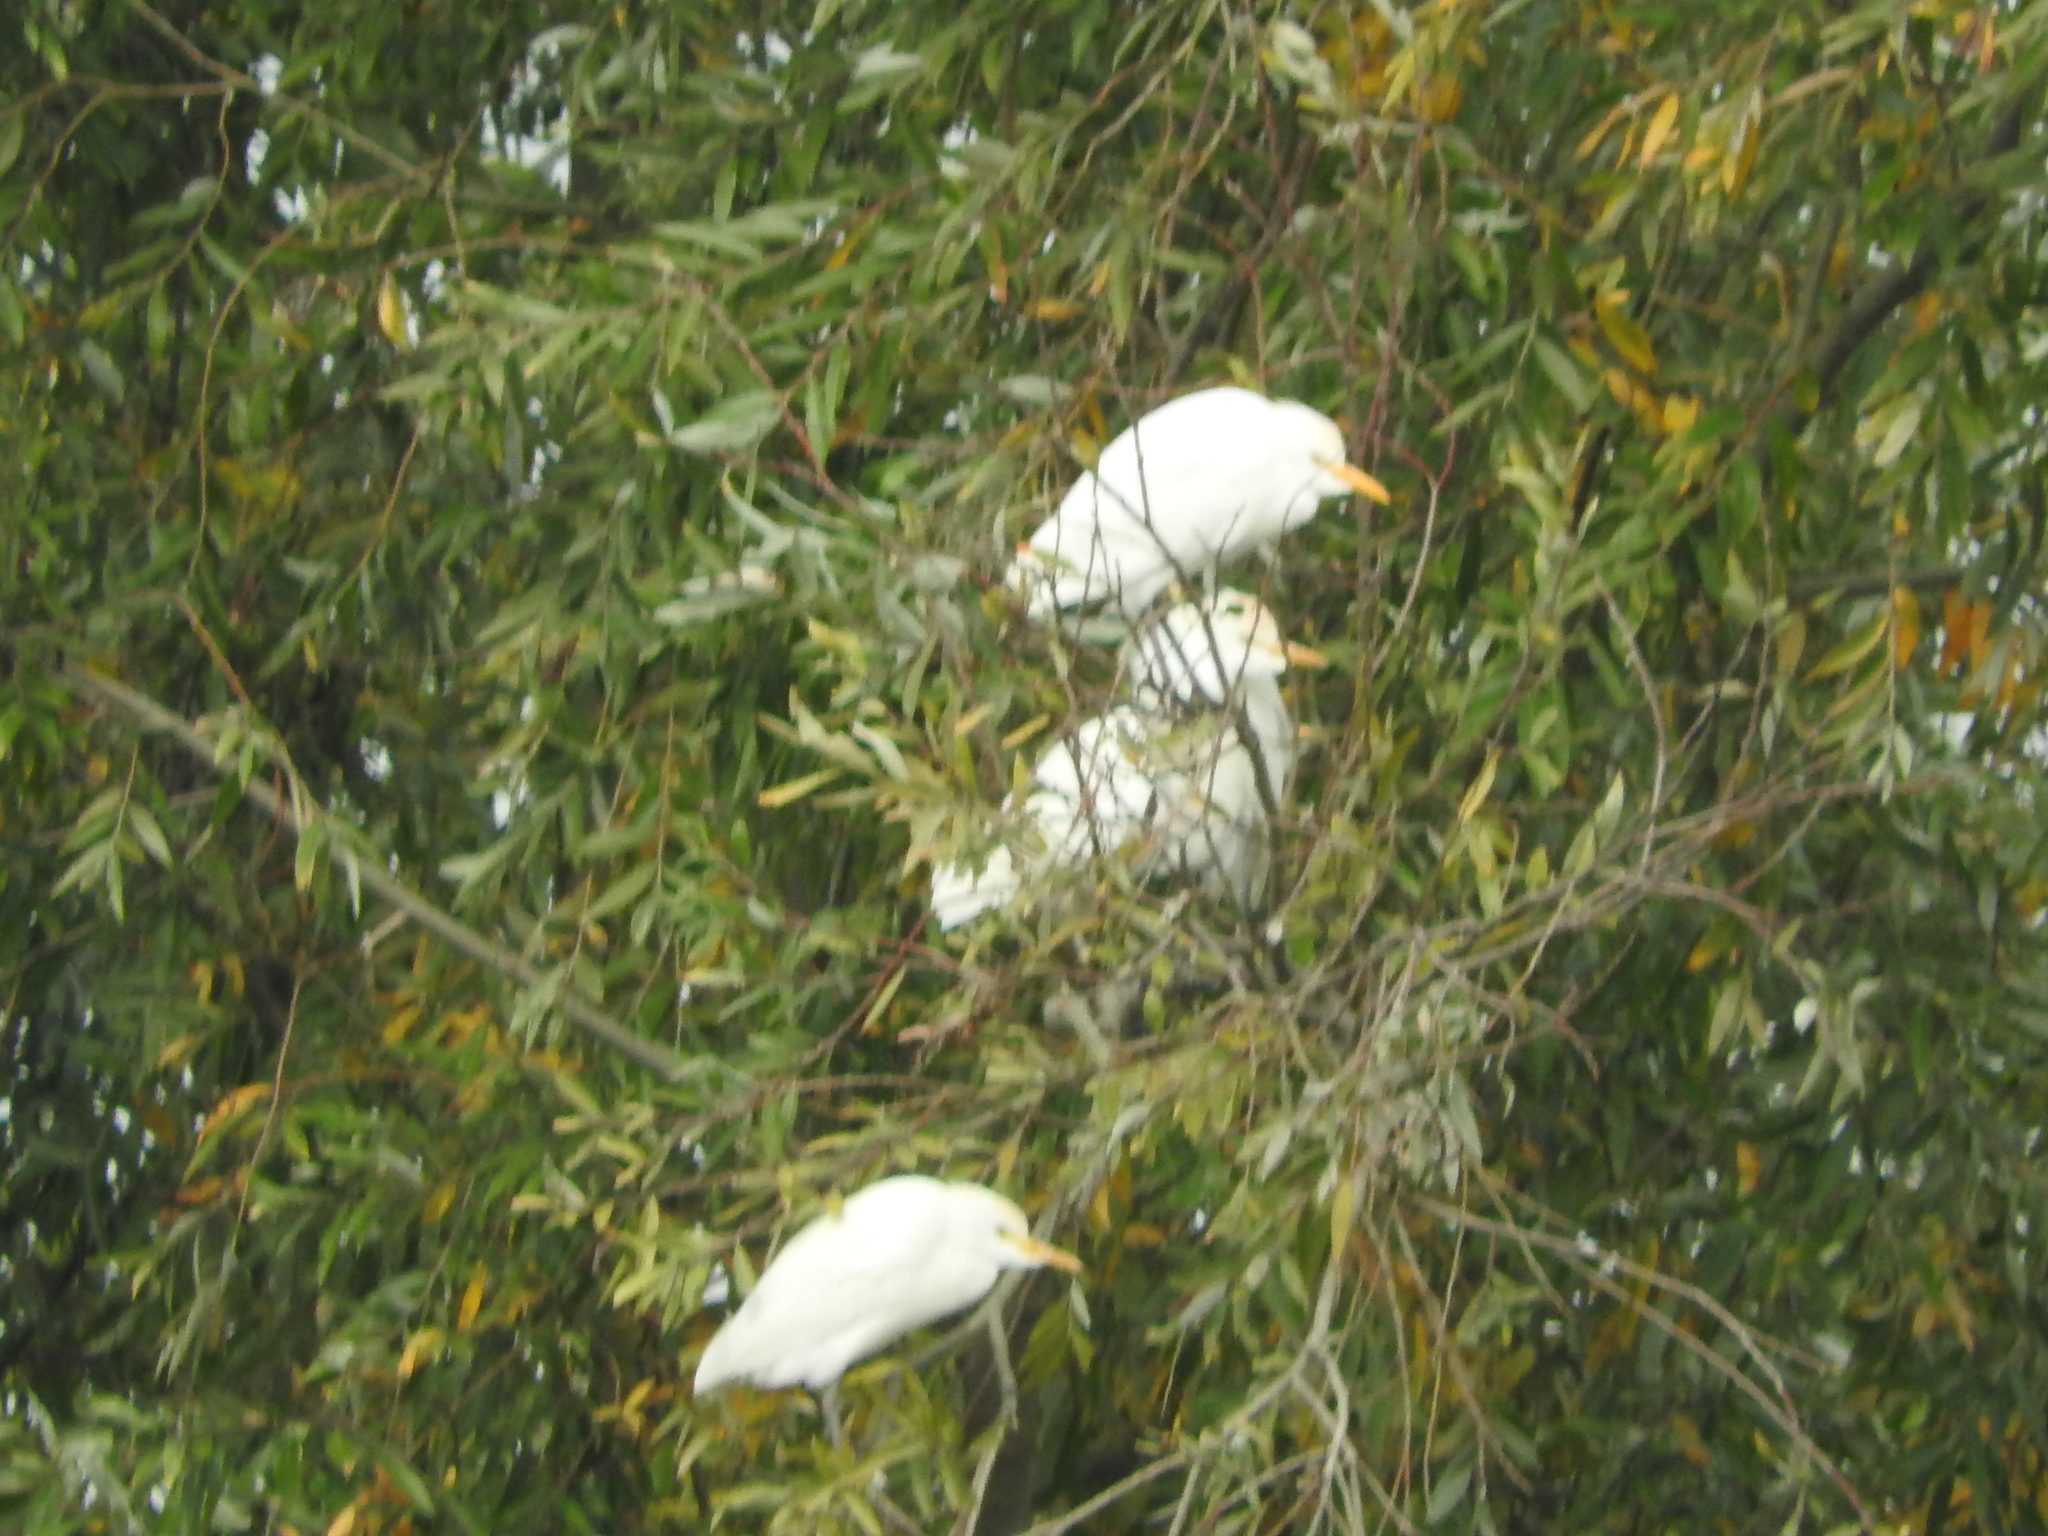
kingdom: Animalia
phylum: Chordata
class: Aves
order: Pelecaniformes
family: Ardeidae
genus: Bubulcus
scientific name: Bubulcus ibis
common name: Cattle egret
